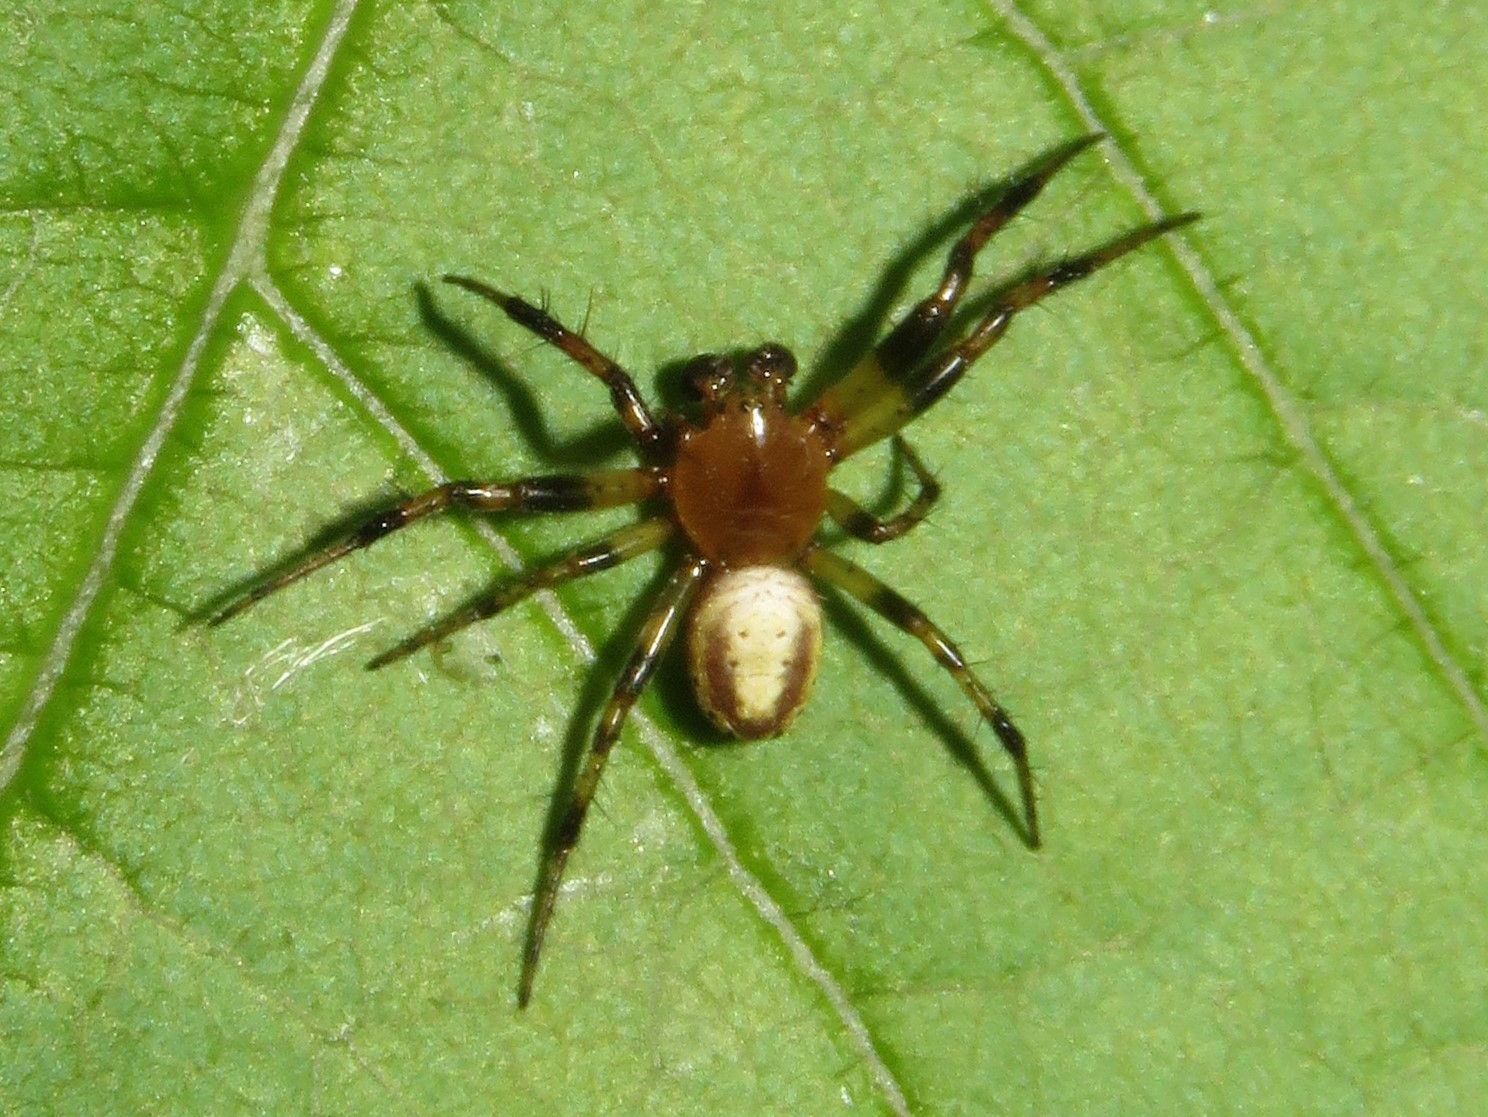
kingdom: Animalia
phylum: Arthropoda
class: Arachnida
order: Araneae
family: Araneidae
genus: Araniella
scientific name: Araniella displicata
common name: Sixspotted orb weaver
